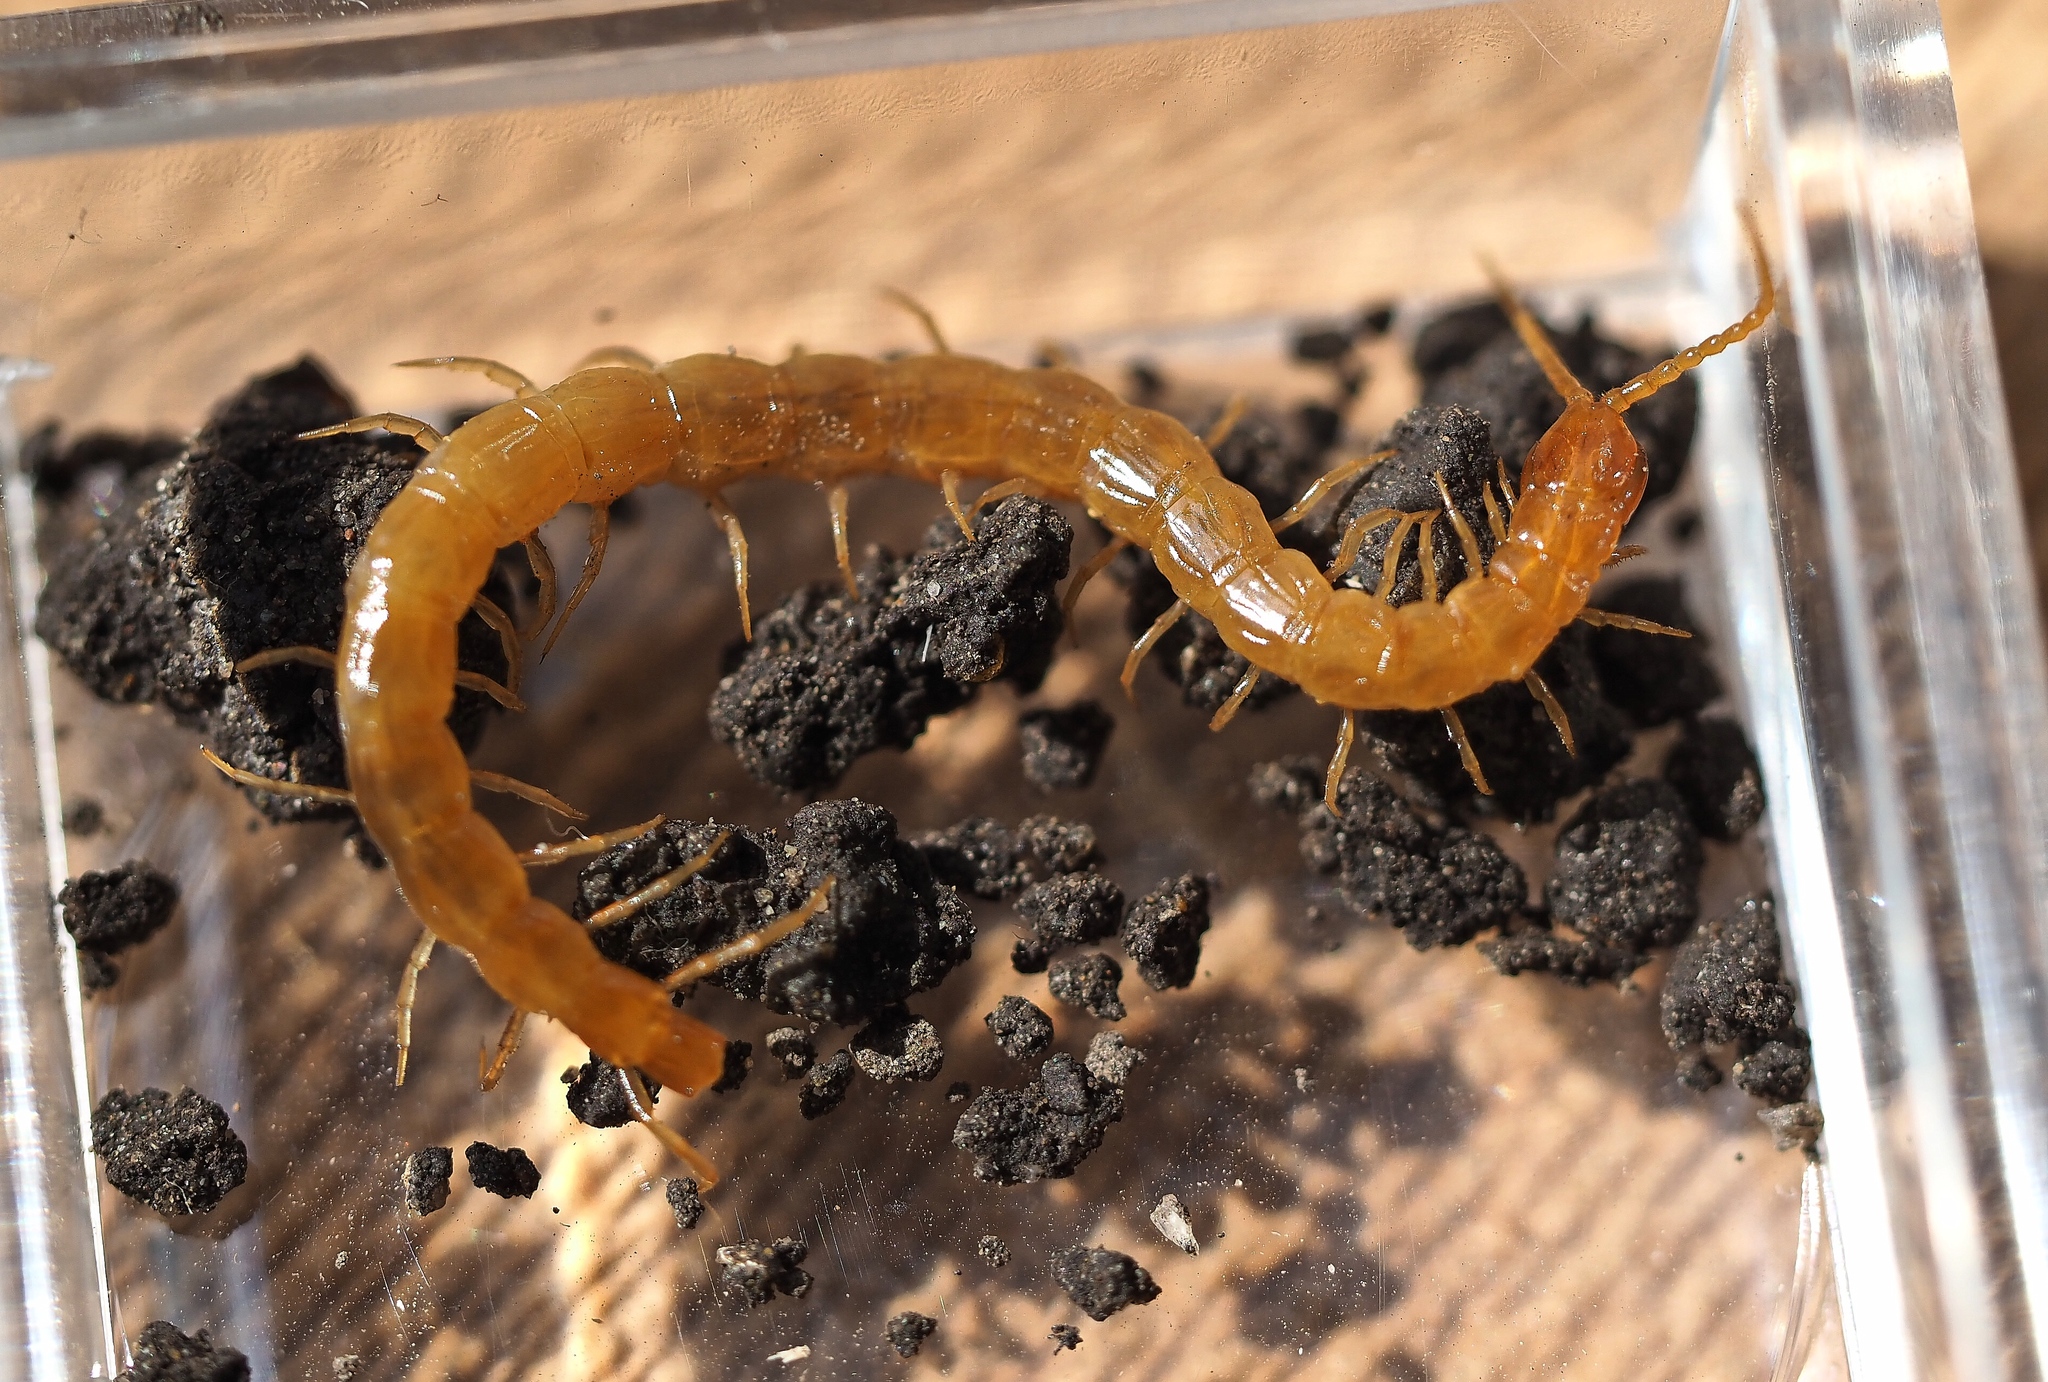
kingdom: Animalia
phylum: Arthropoda
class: Chilopoda
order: Scolopendromorpha
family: Cryptopidae
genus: Cryptops
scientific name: Cryptops parisi
